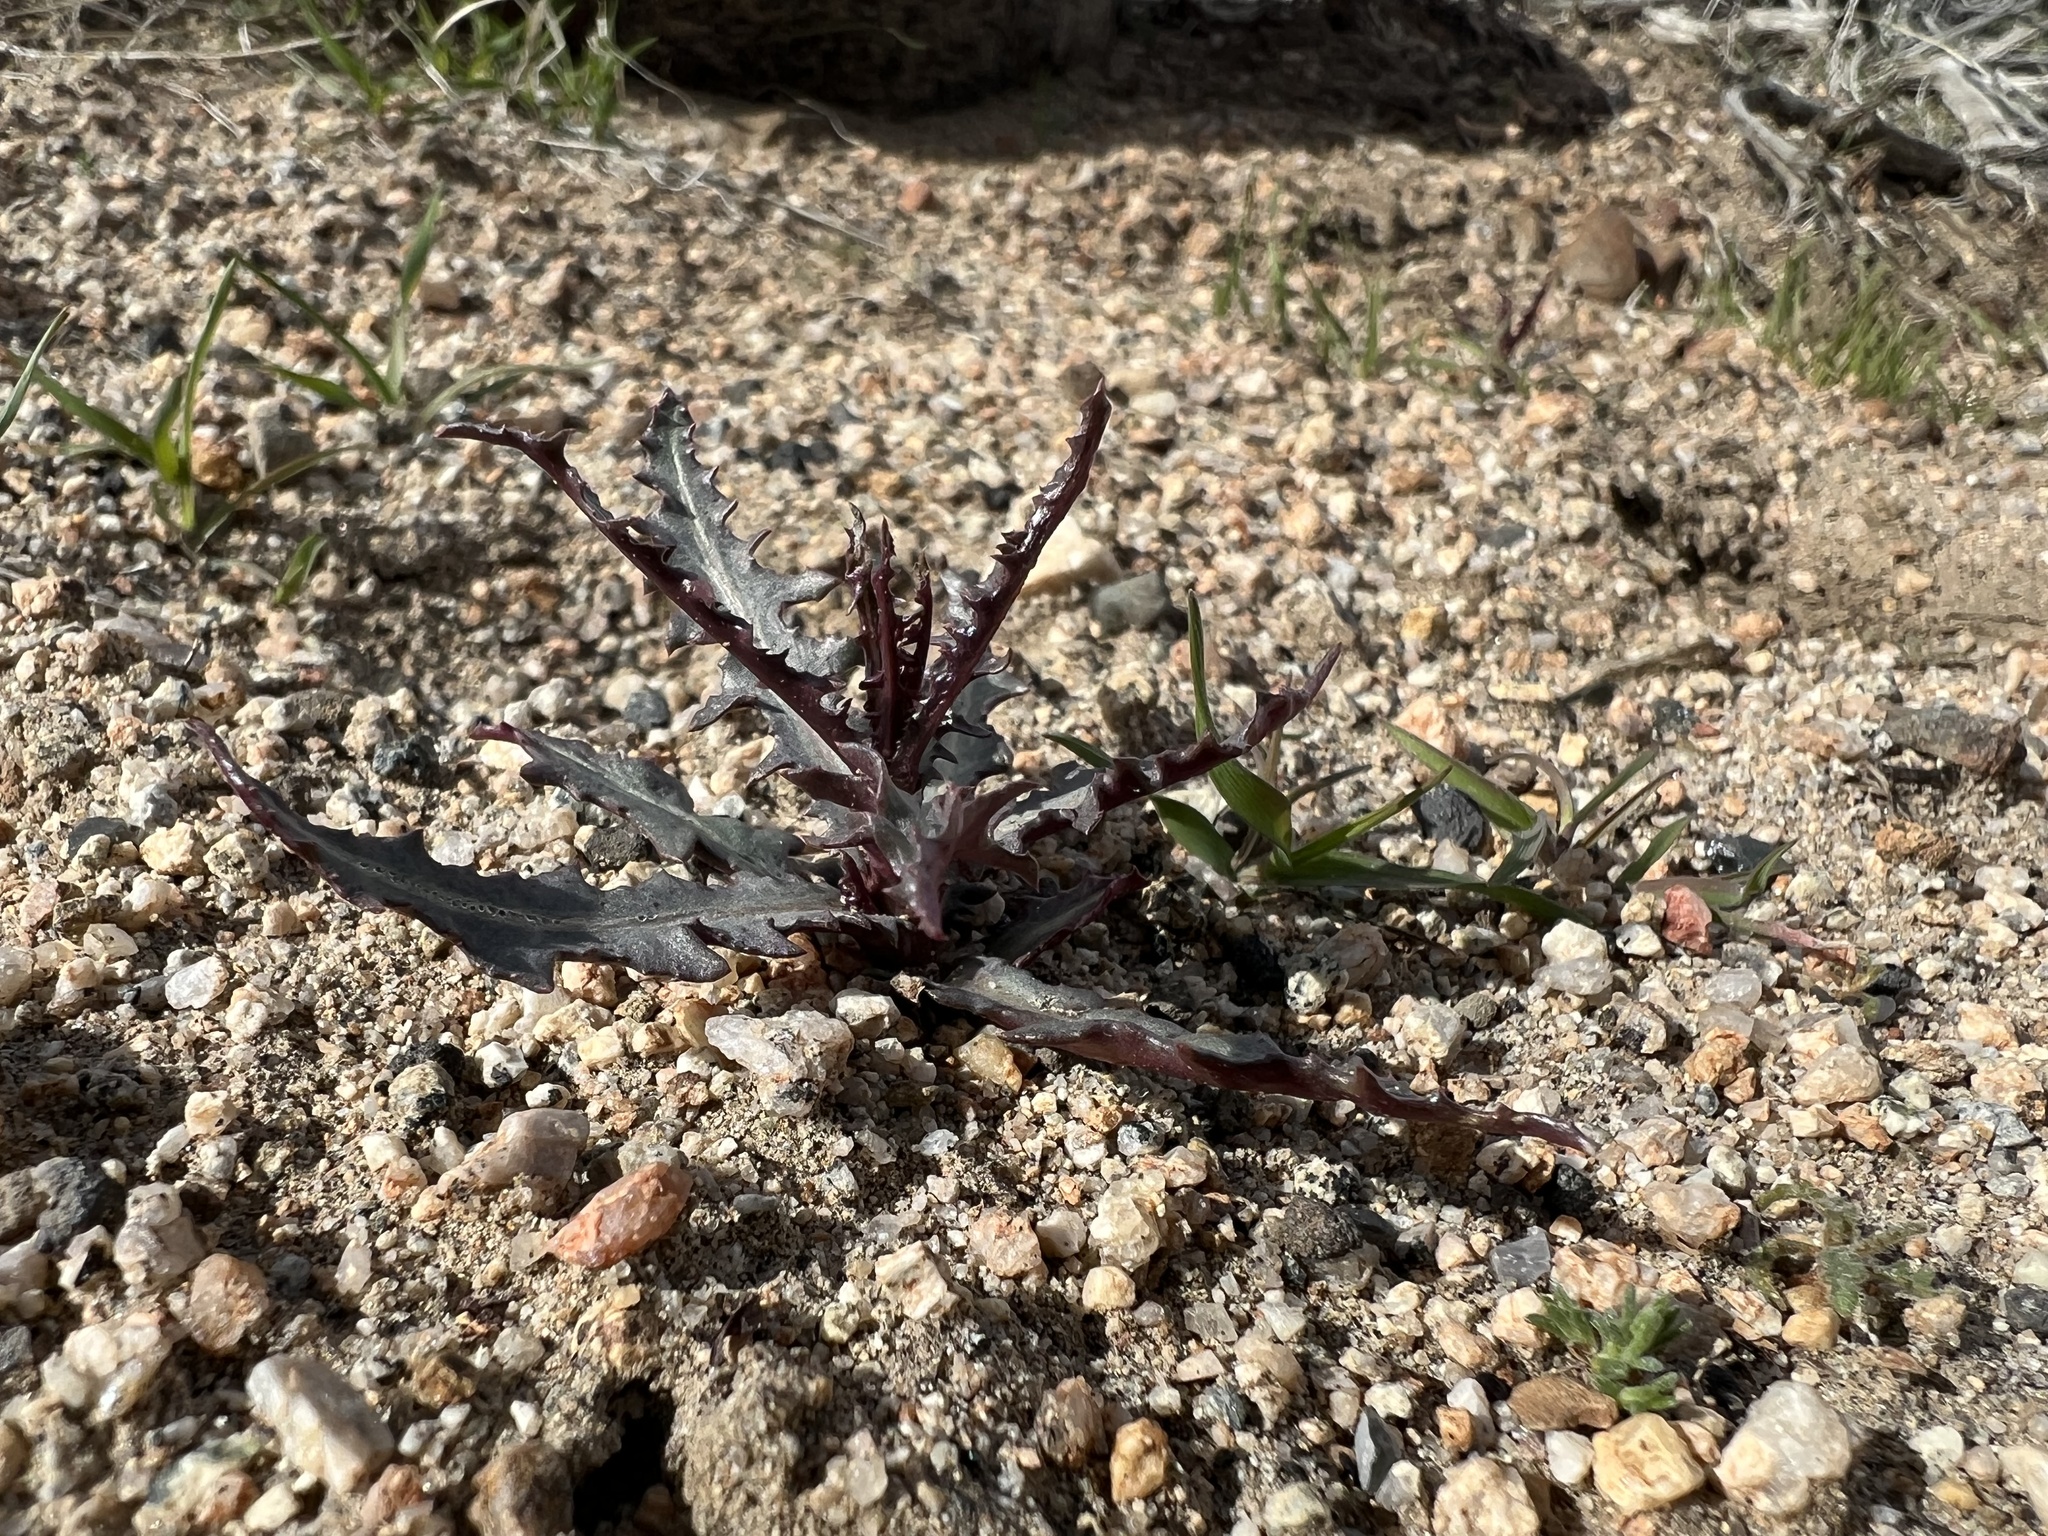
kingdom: Plantae
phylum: Tracheophyta
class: Magnoliopsida
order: Asterales
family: Asteraceae
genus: Stephanomeria
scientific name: Stephanomeria parryi
